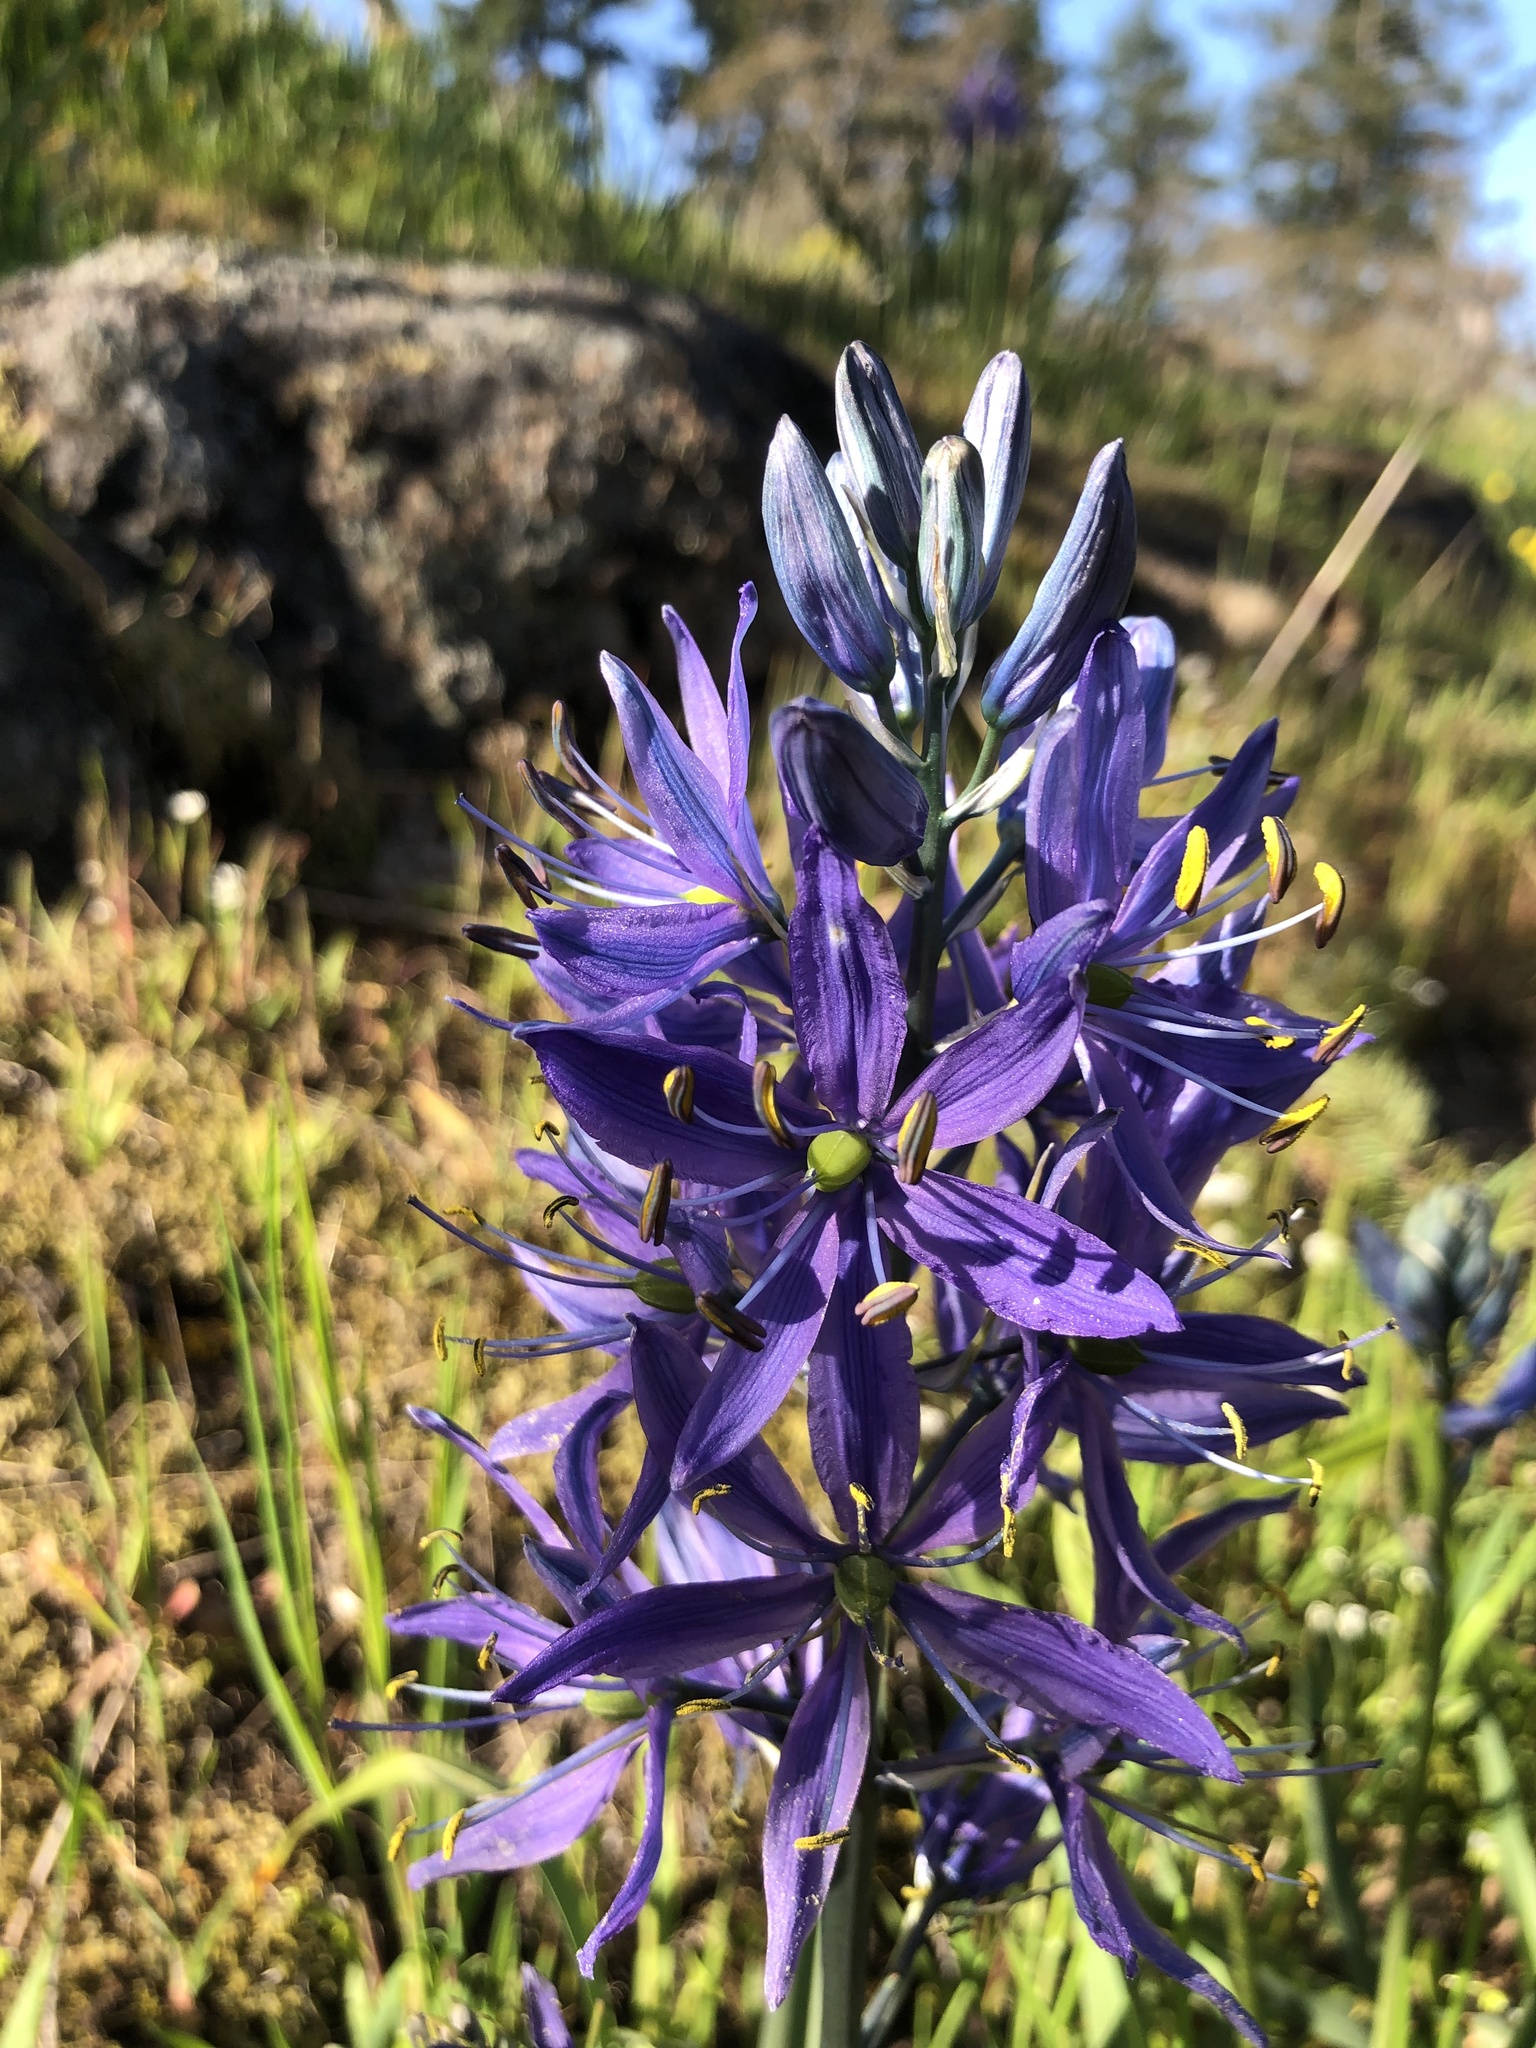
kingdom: Plantae
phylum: Tracheophyta
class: Liliopsida
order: Asparagales
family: Asparagaceae
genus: Camassia
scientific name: Camassia quamash
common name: Common camas
